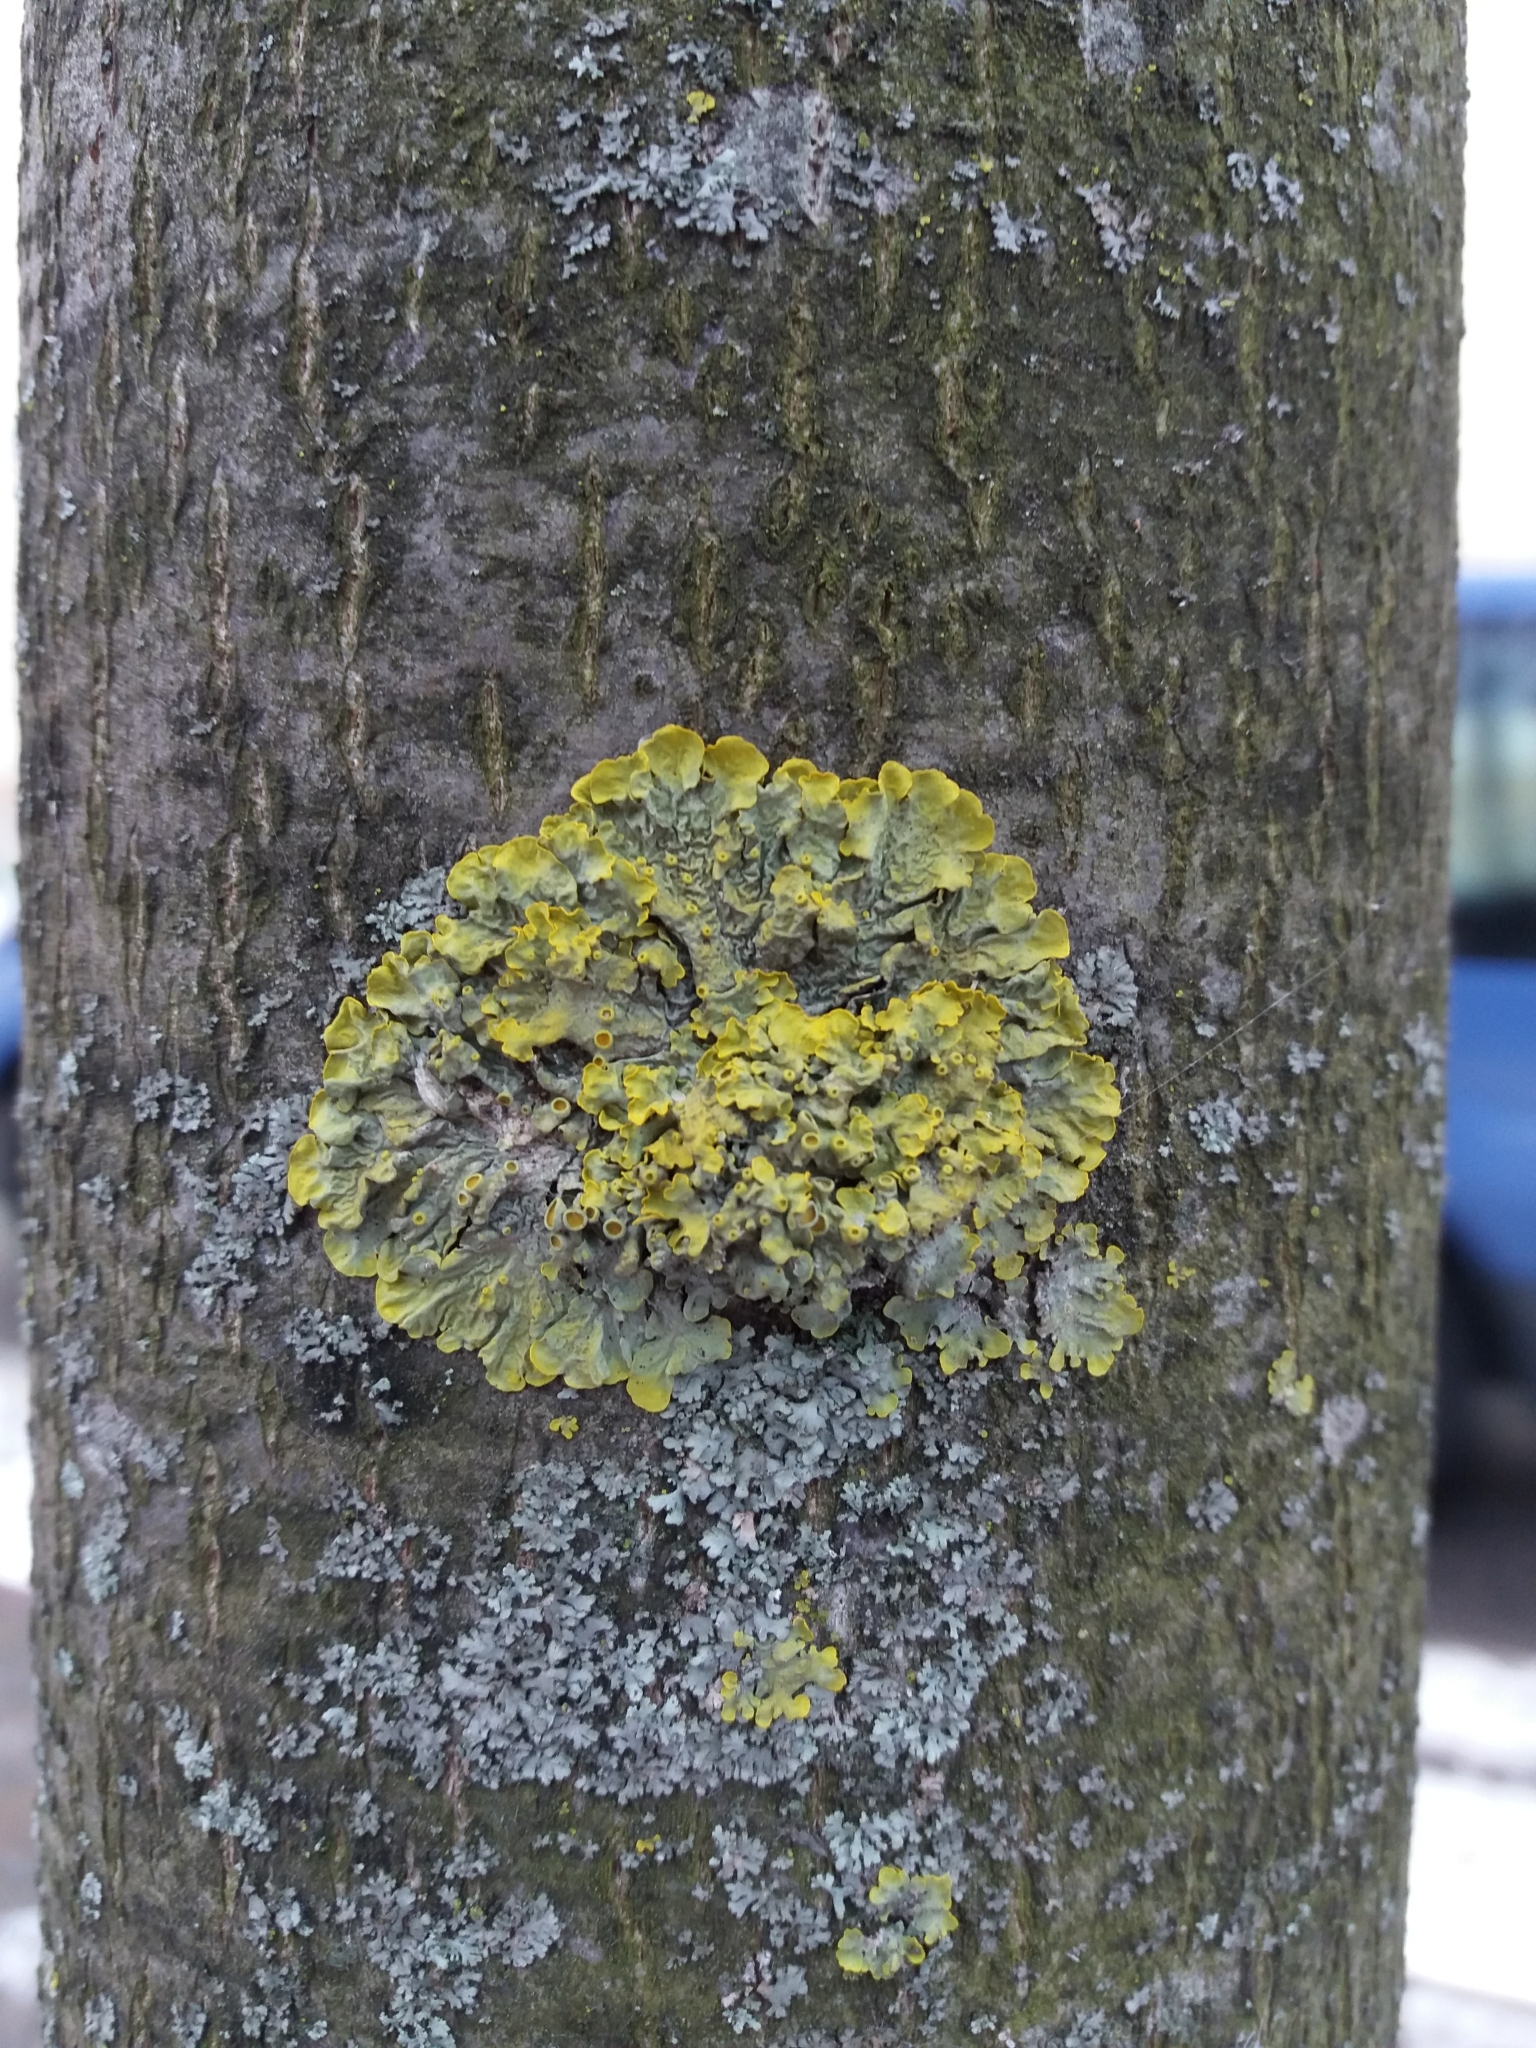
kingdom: Fungi
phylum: Ascomycota
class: Lecanoromycetes
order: Teloschistales
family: Teloschistaceae
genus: Xanthoria
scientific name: Xanthoria parietina
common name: Common orange lichen
